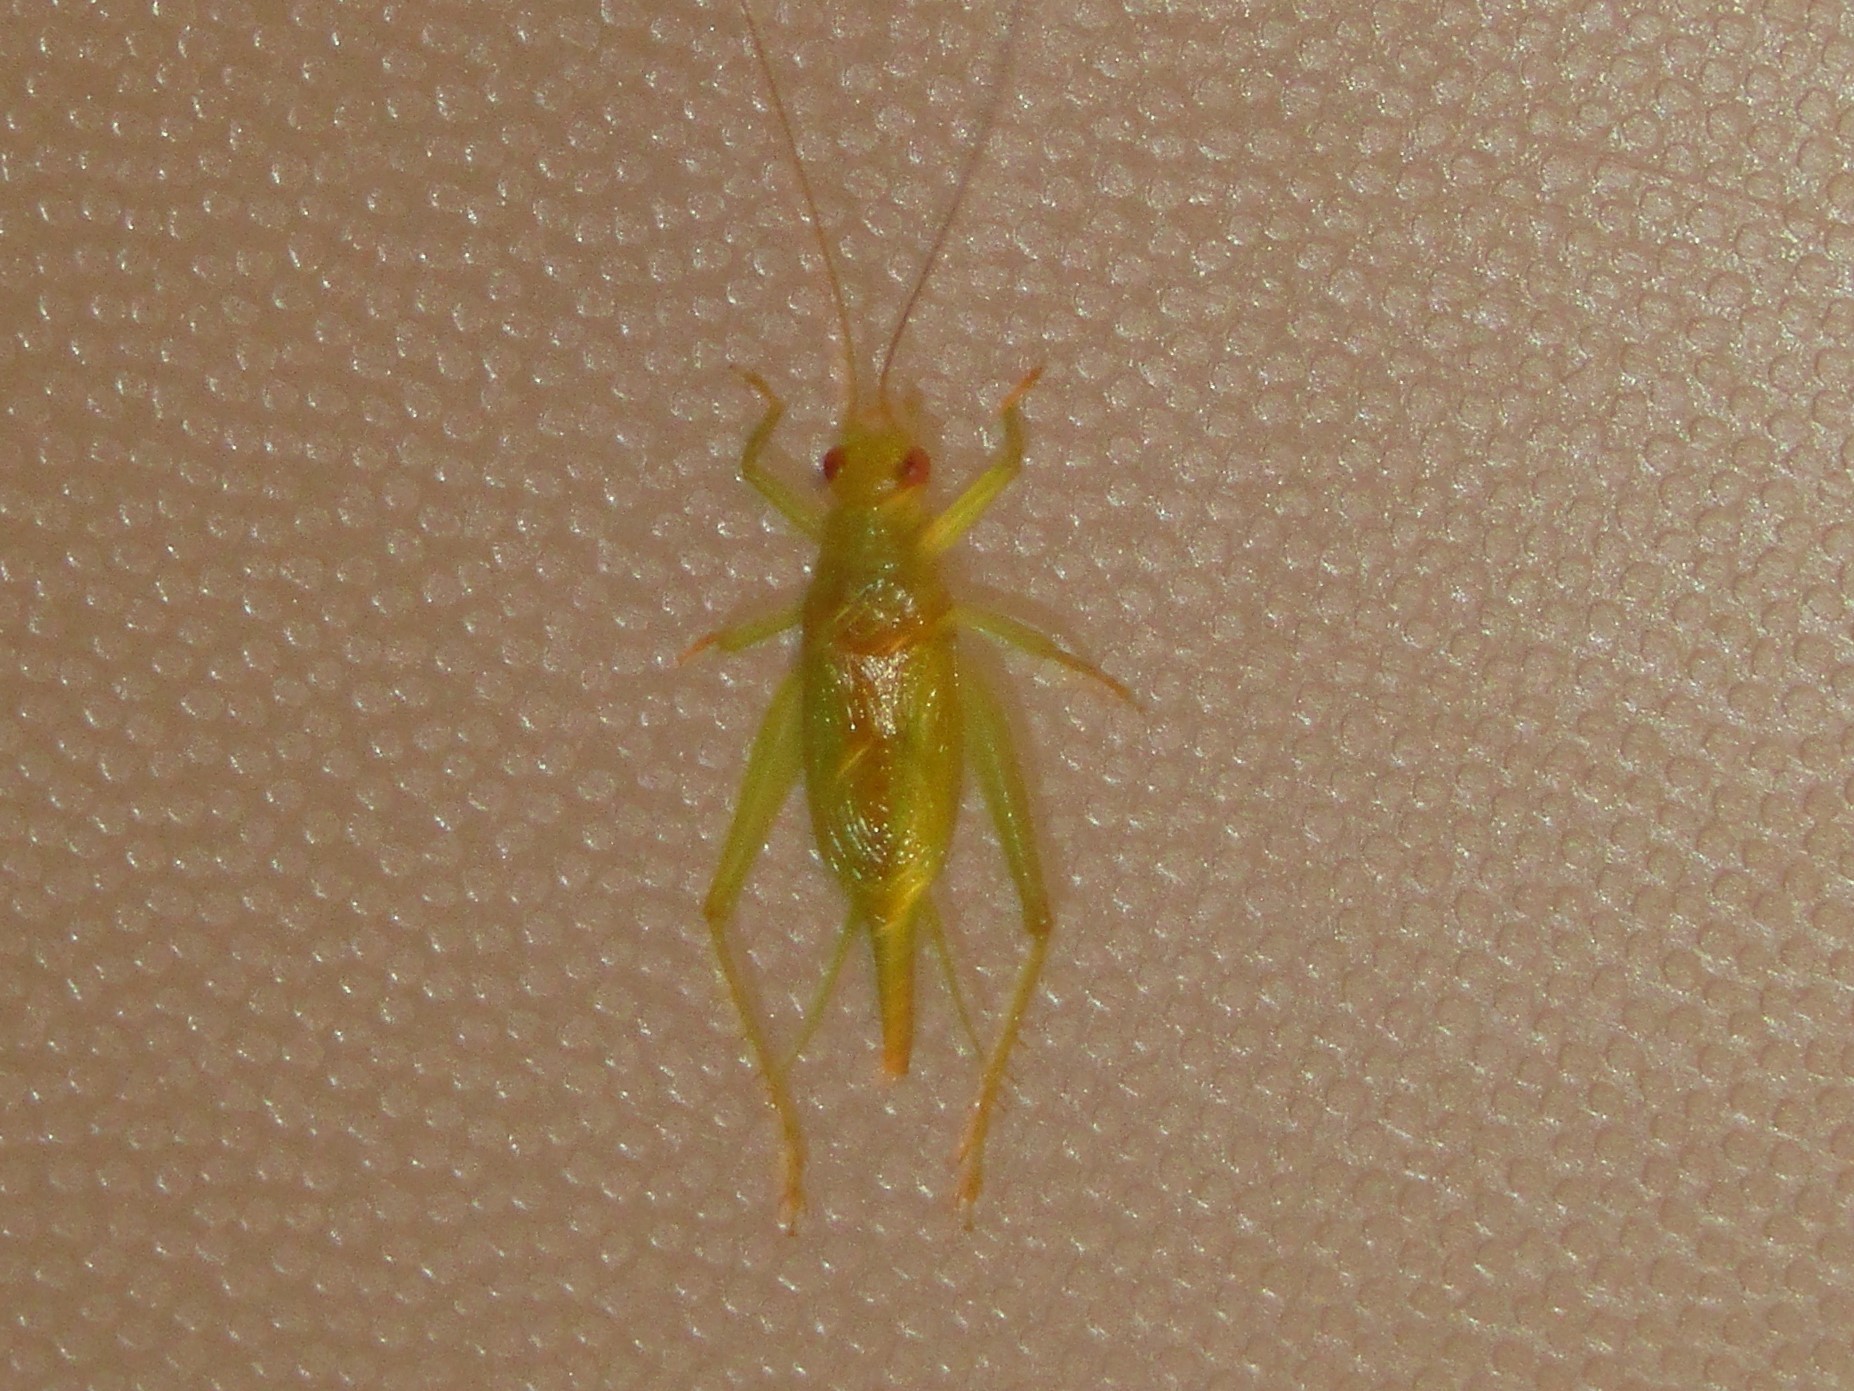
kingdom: Animalia
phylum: Arthropoda
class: Insecta
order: Orthoptera
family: Trigonidiidae
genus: Cyrtoxipha
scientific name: Cyrtoxipha columbiana
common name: Columbian trig
